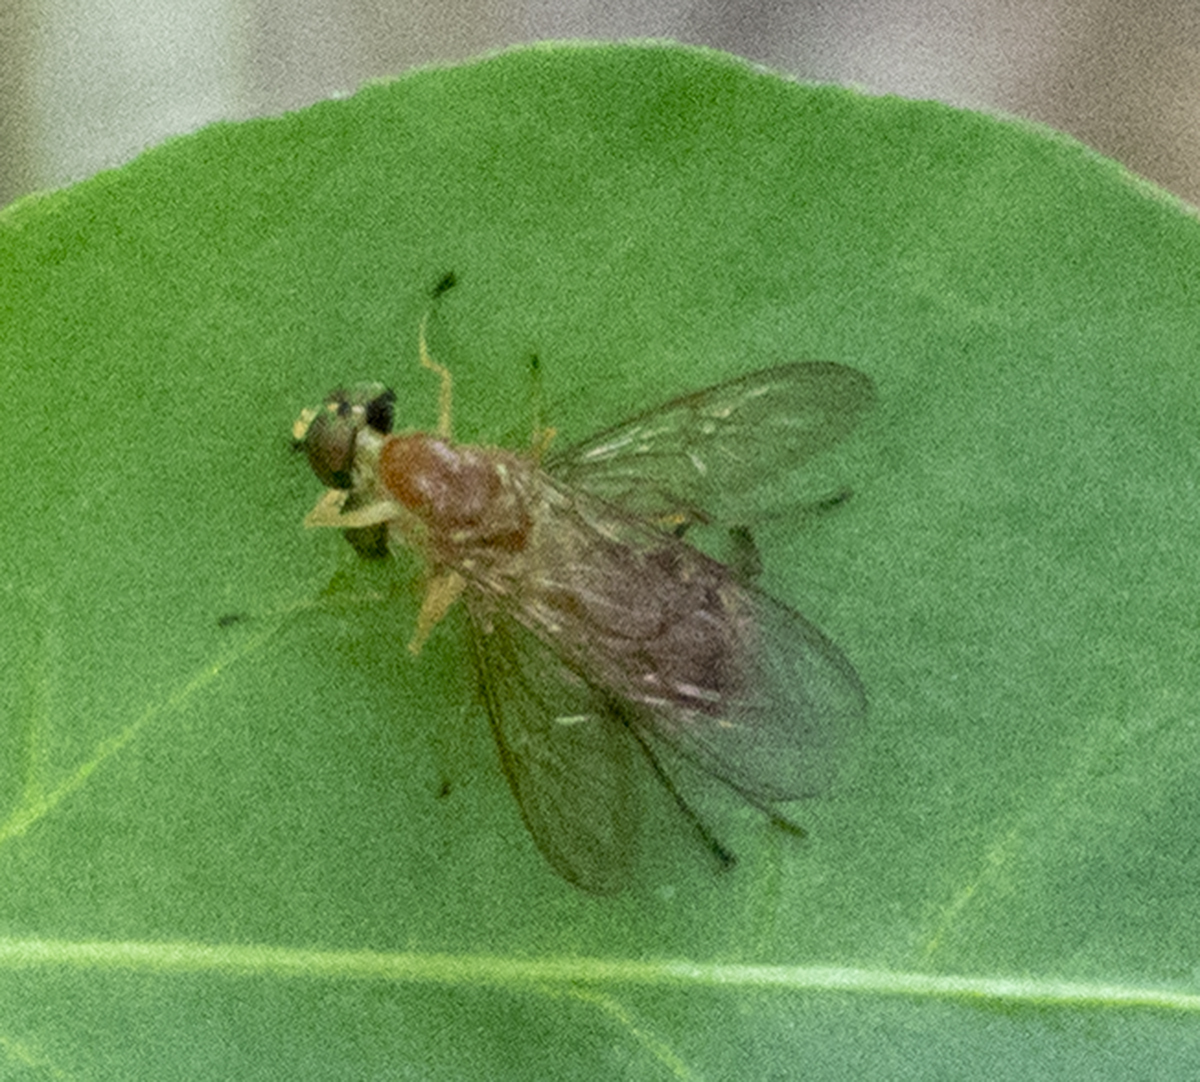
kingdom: Animalia
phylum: Arthropoda
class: Insecta
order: Diptera
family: Stratiomyidae
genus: Ptecticus
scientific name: Ptecticus trivittatus
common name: Compost fly
